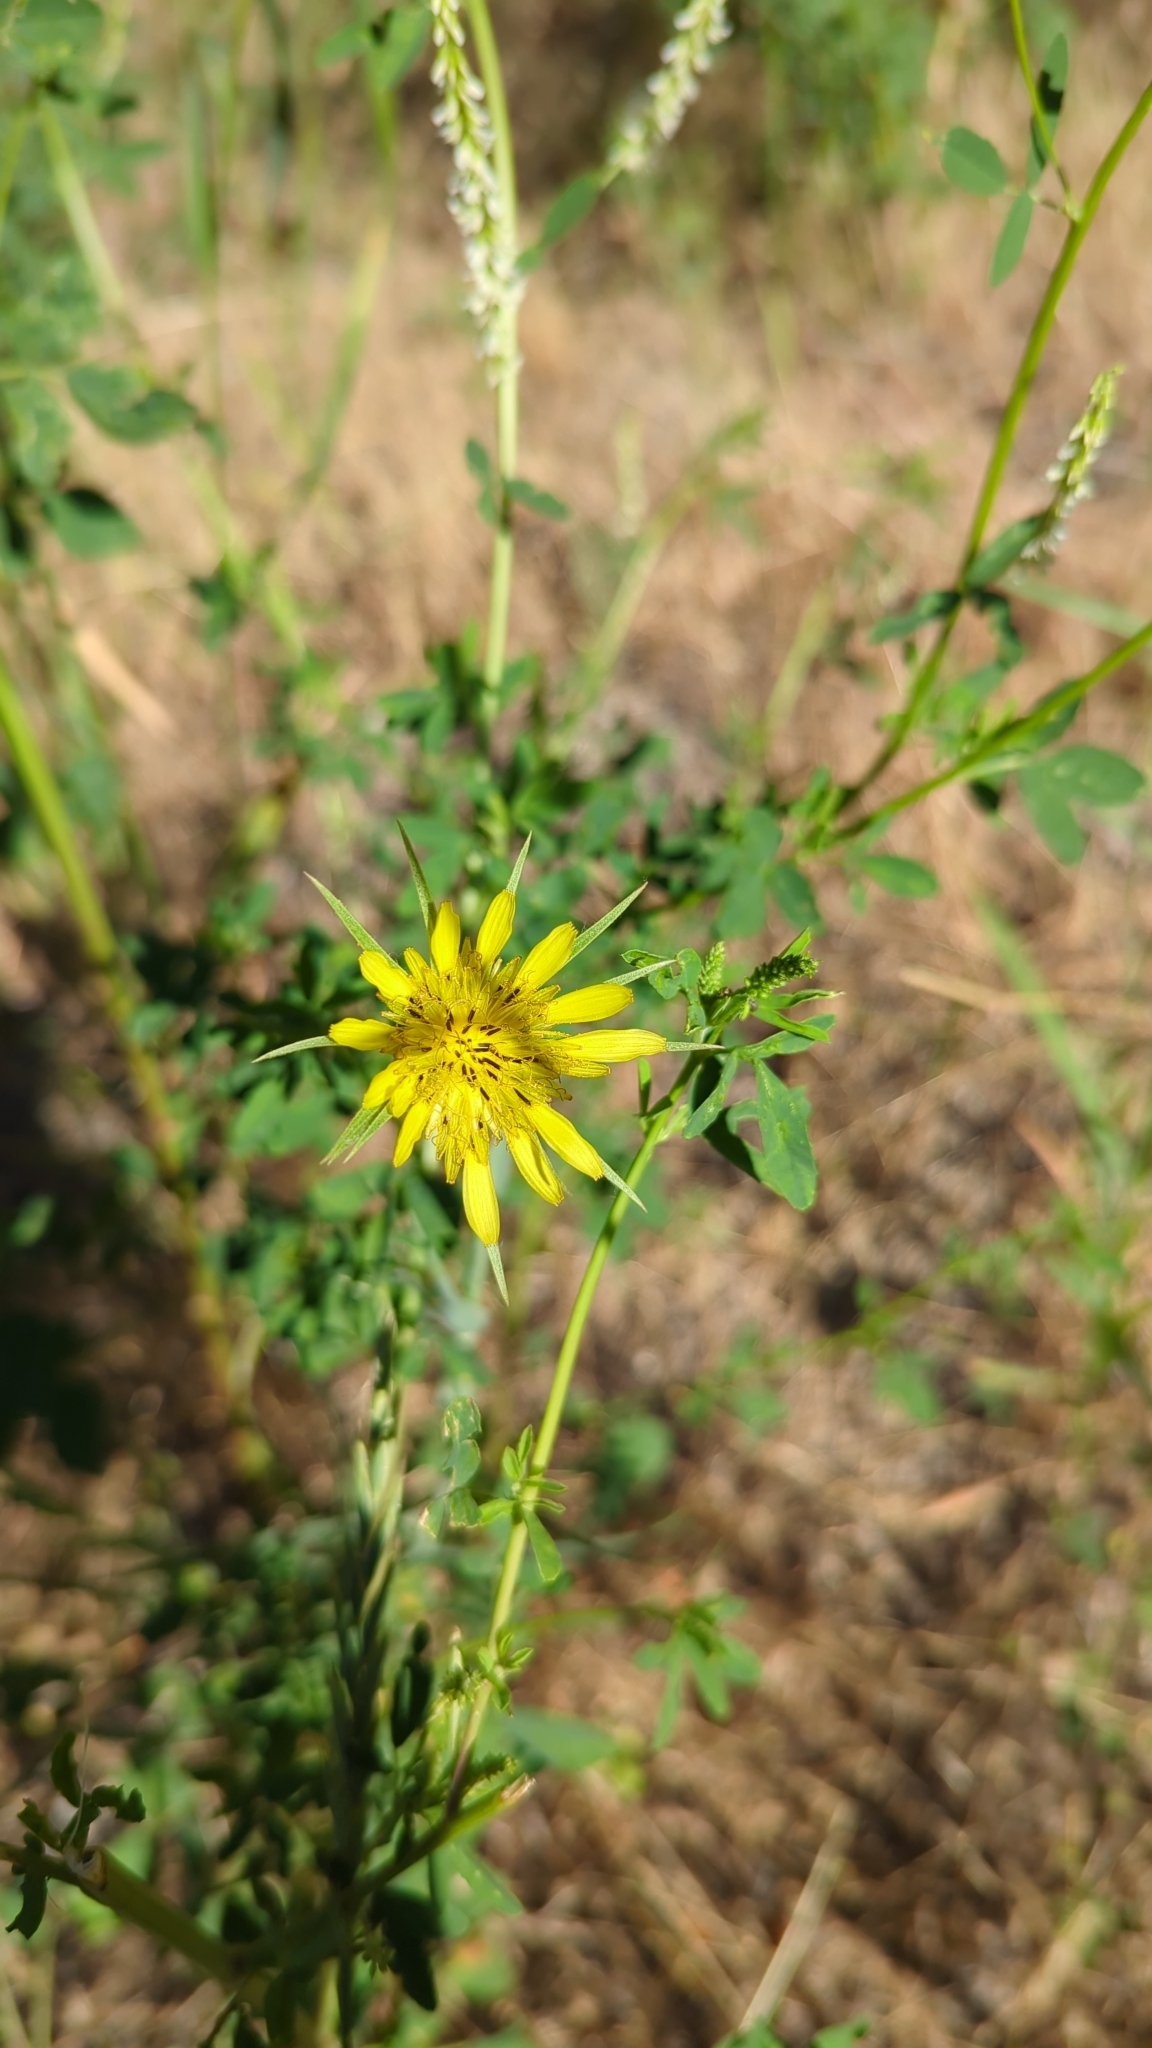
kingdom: Plantae
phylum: Tracheophyta
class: Magnoliopsida
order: Asterales
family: Asteraceae
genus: Tragopogon
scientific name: Tragopogon dubius
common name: Yellow salsify
